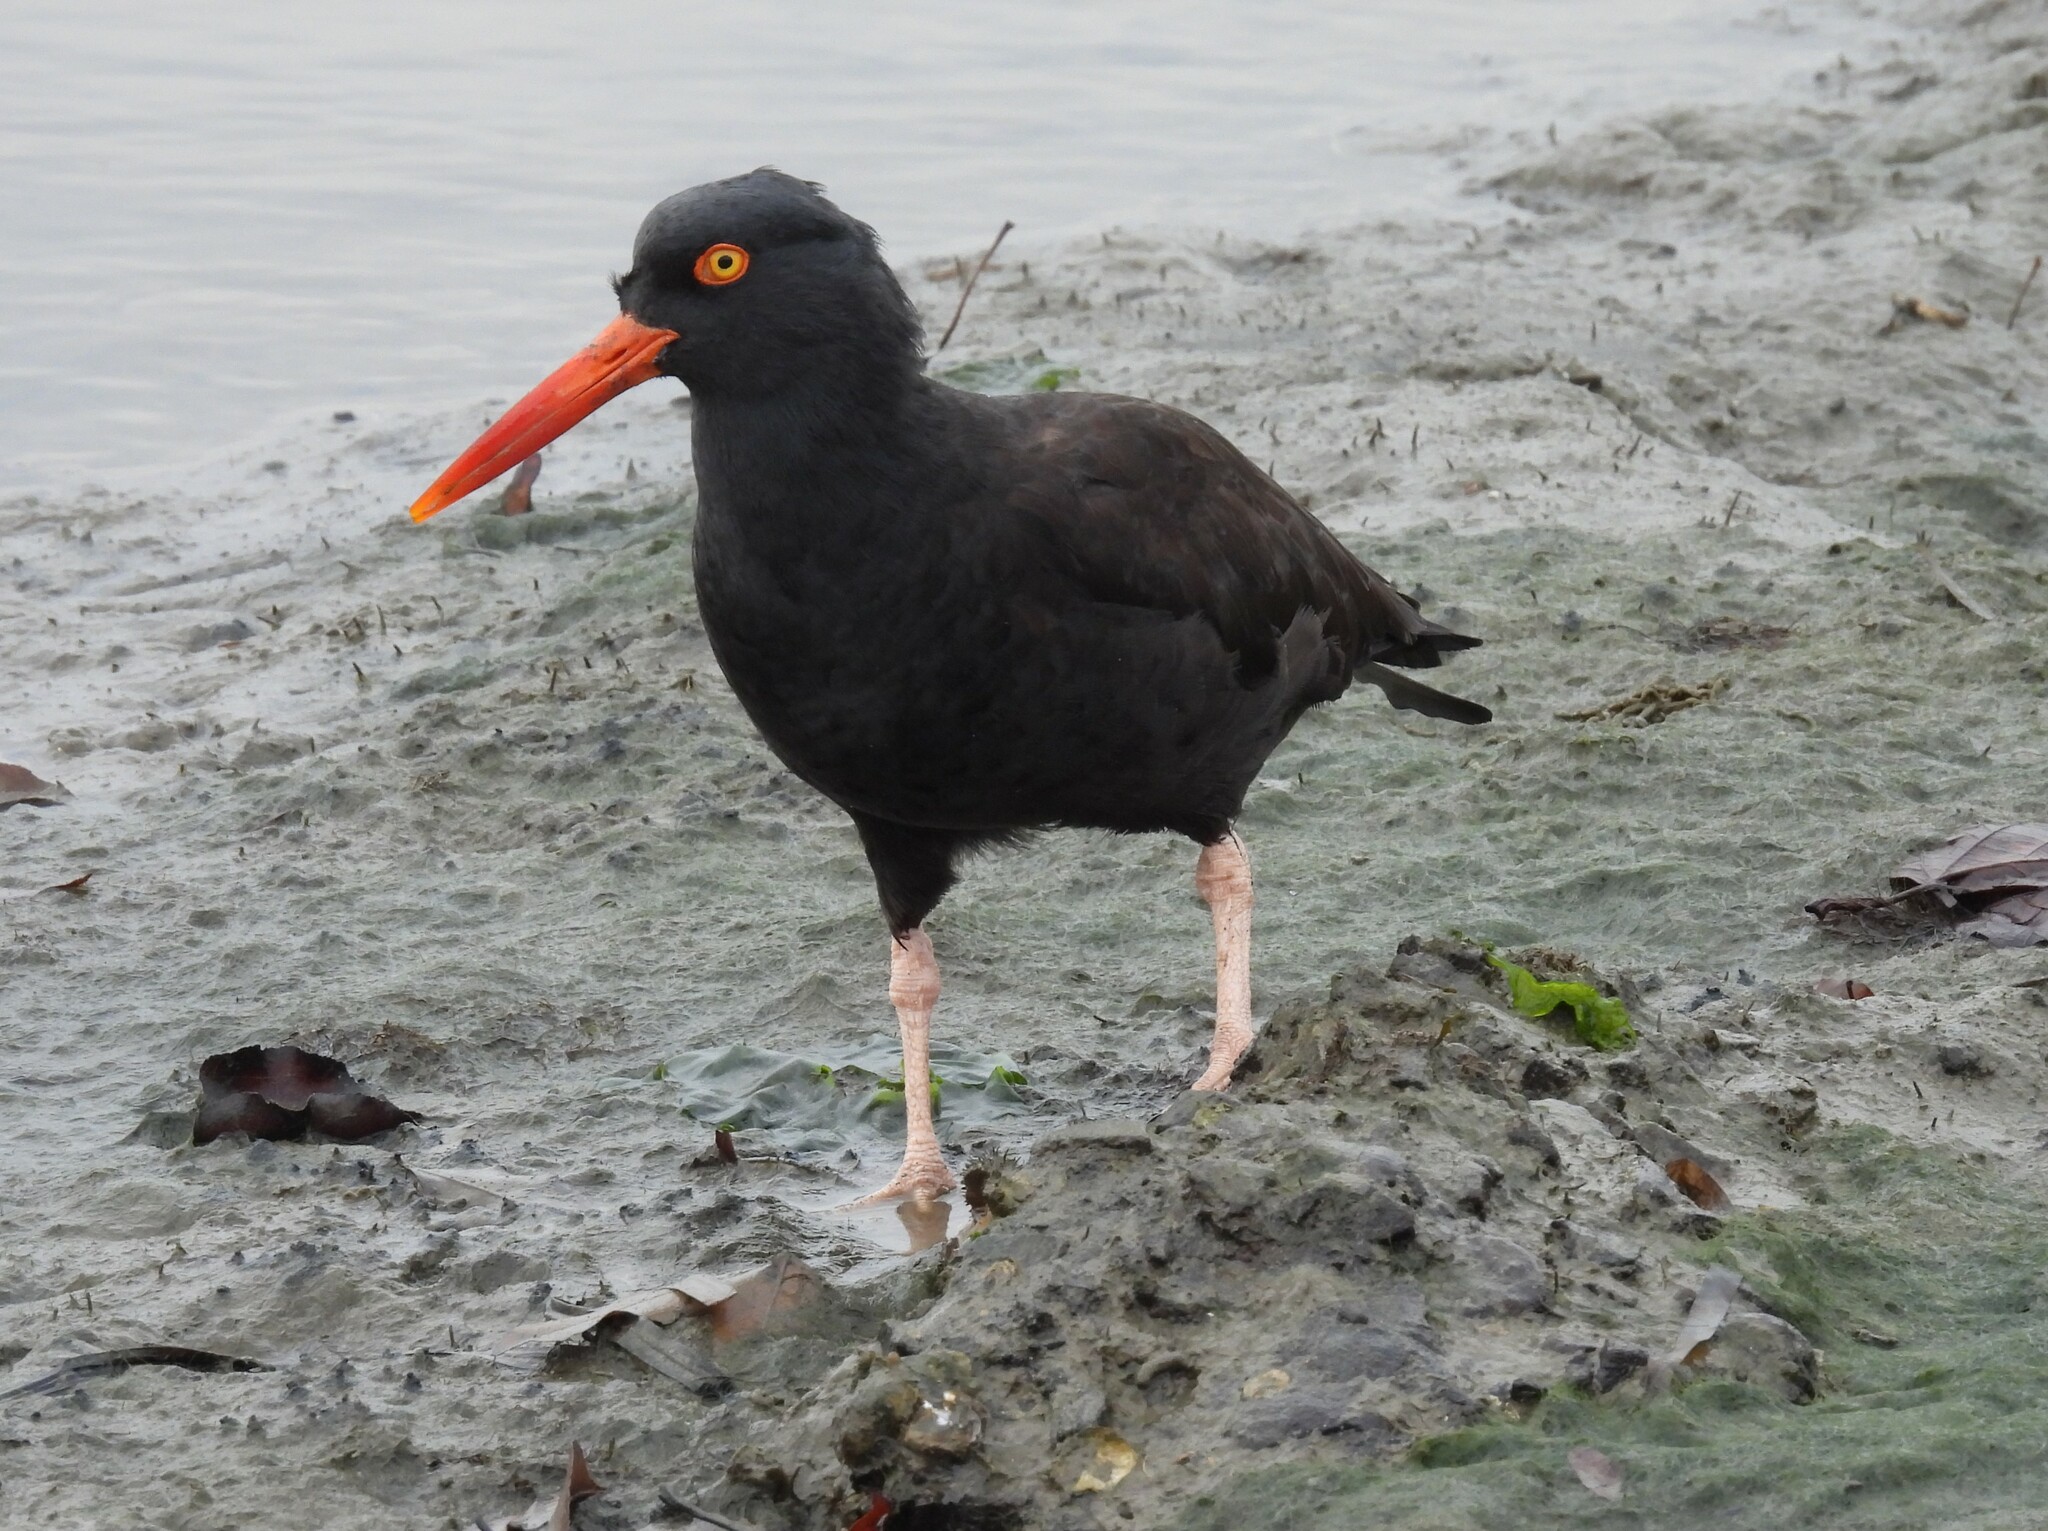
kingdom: Animalia
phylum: Chordata
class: Aves
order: Charadriiformes
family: Haematopodidae
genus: Haematopus
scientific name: Haematopus bachmani
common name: Black oystercatcher
